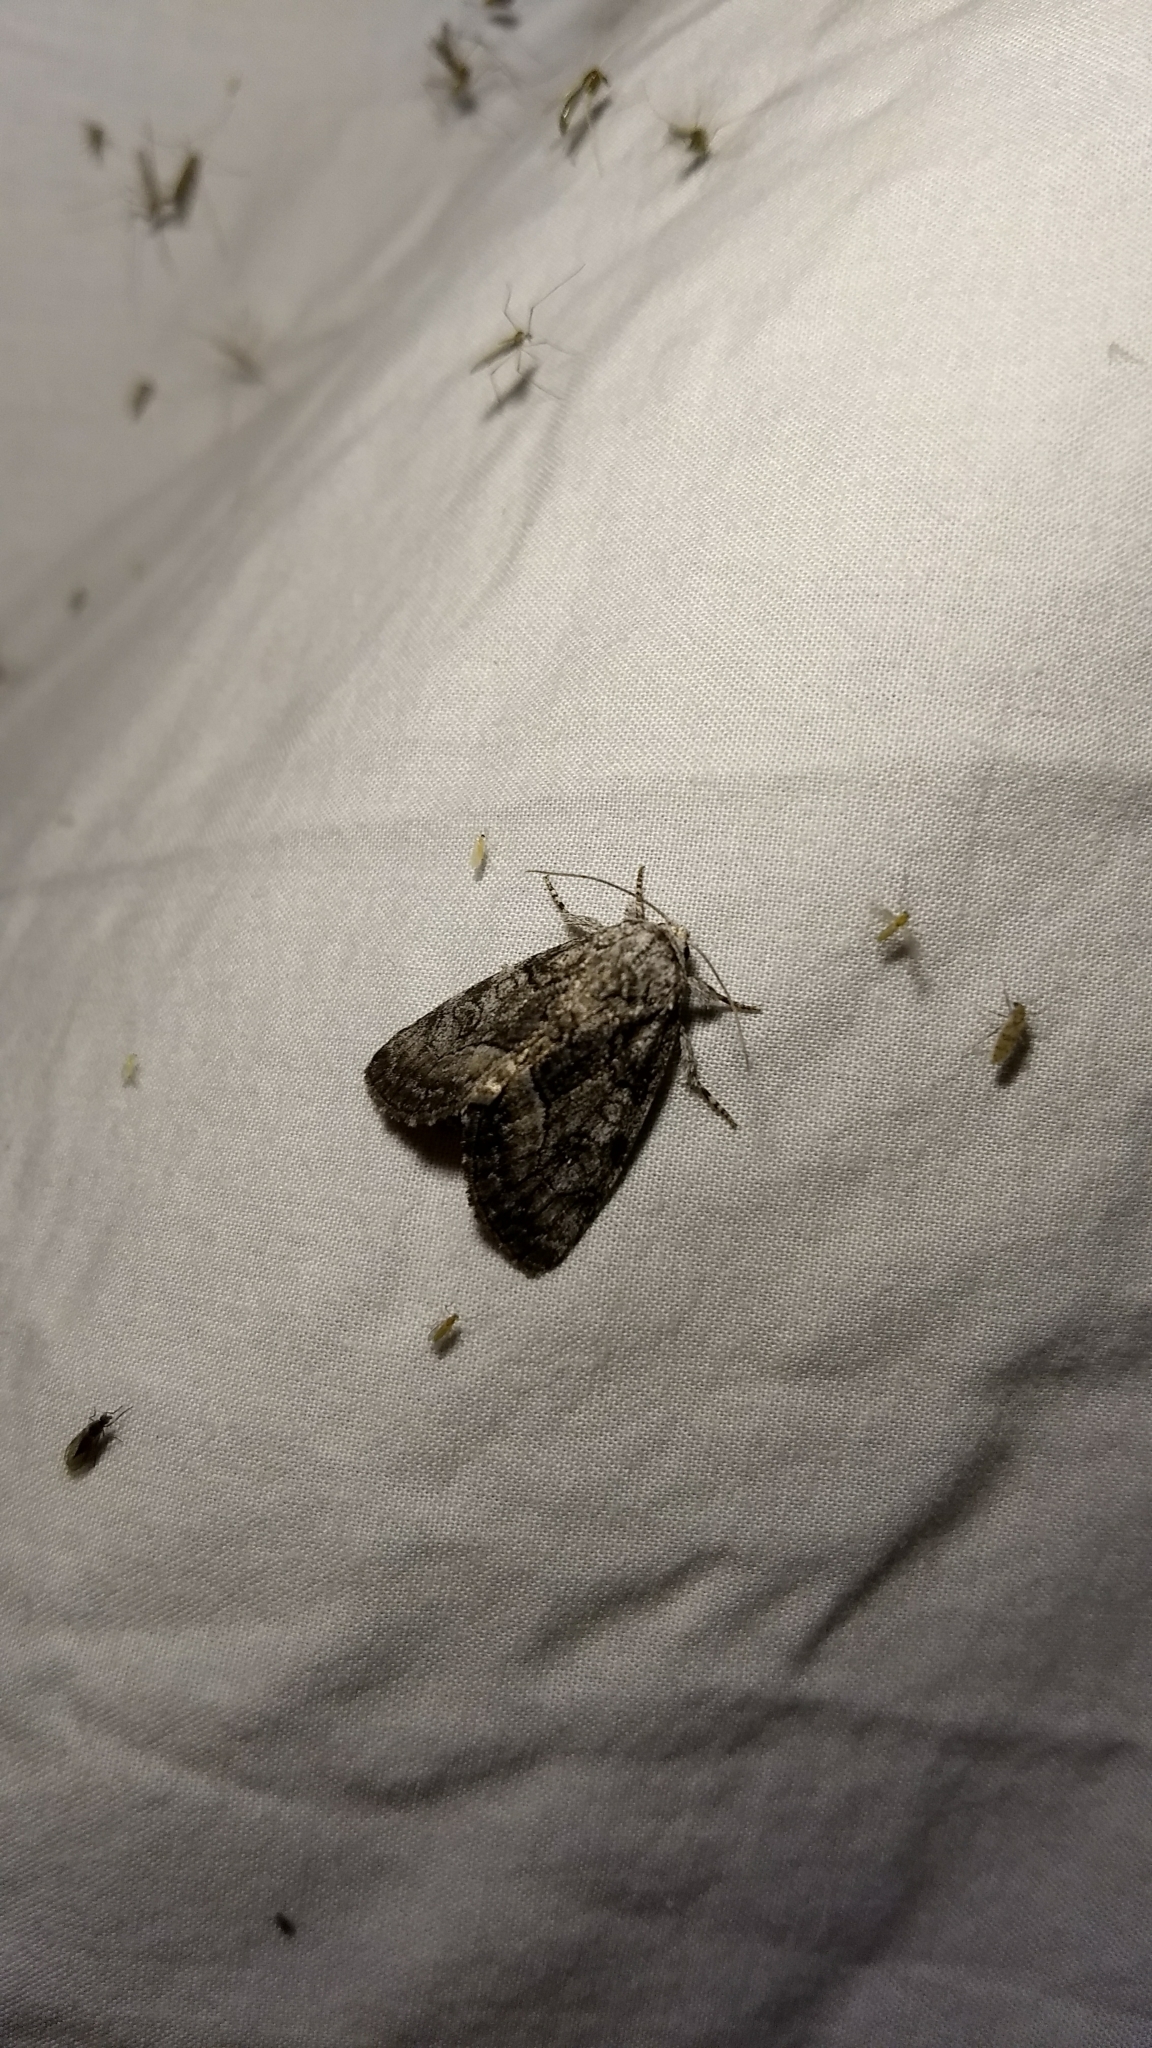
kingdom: Animalia
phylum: Arthropoda
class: Insecta
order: Lepidoptera
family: Noctuidae
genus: Raphia
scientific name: Raphia frater
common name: Brother
